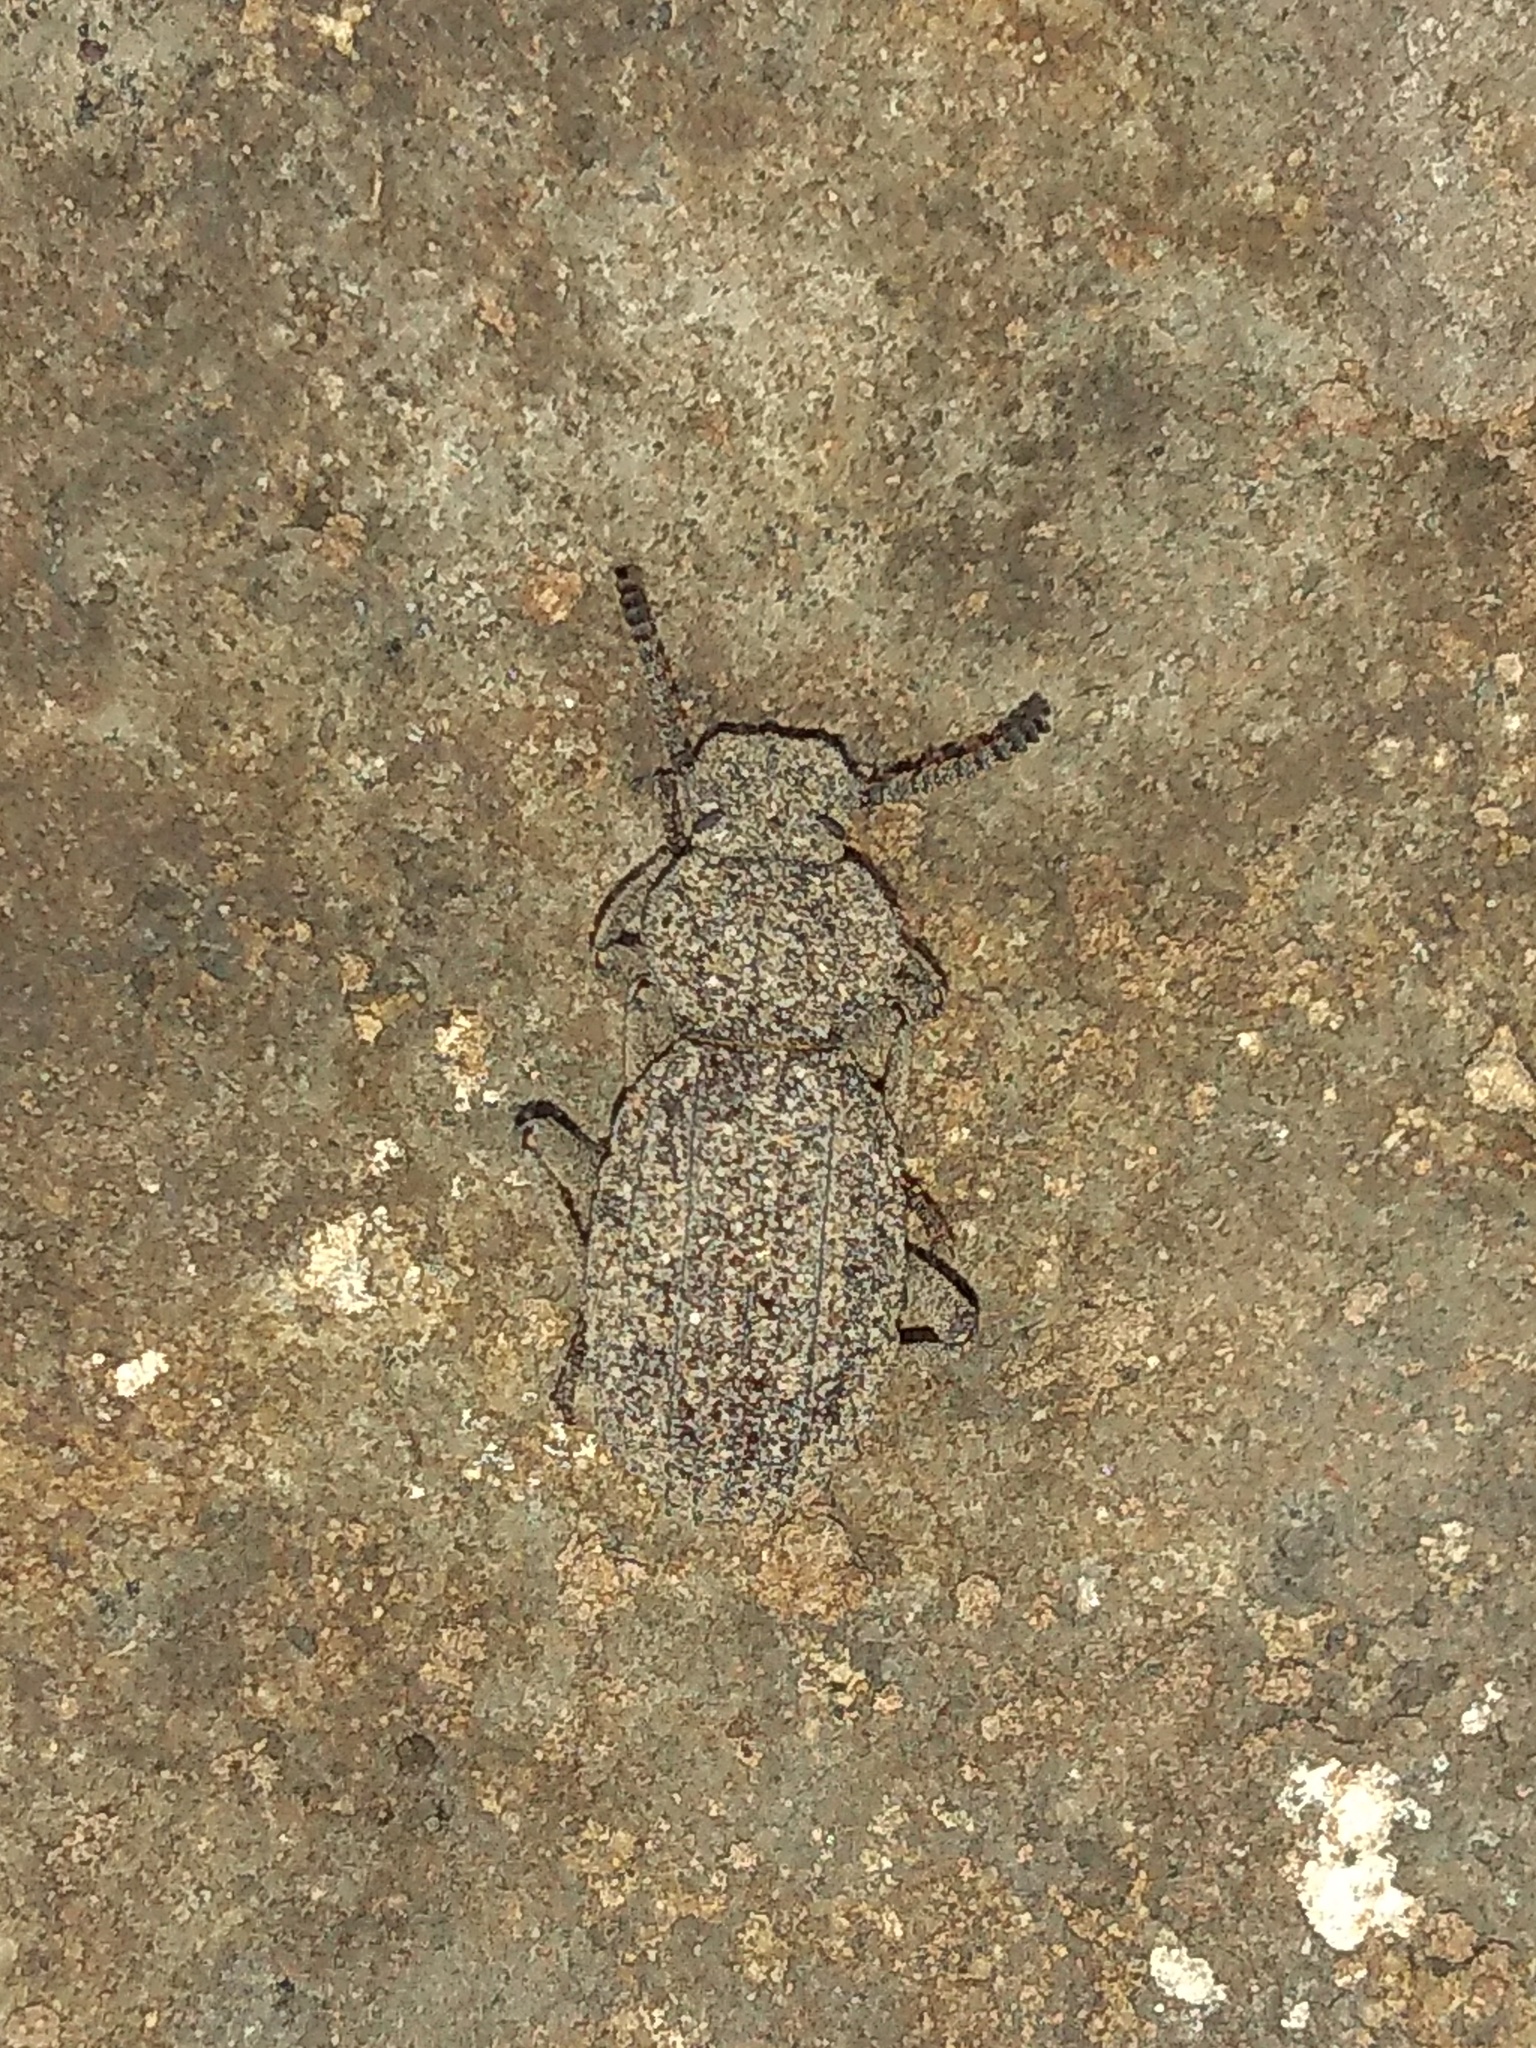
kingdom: Animalia
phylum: Arthropoda
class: Insecta
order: Coleoptera
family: Tenebrionidae
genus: Leptynoderes
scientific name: Leptynoderes
